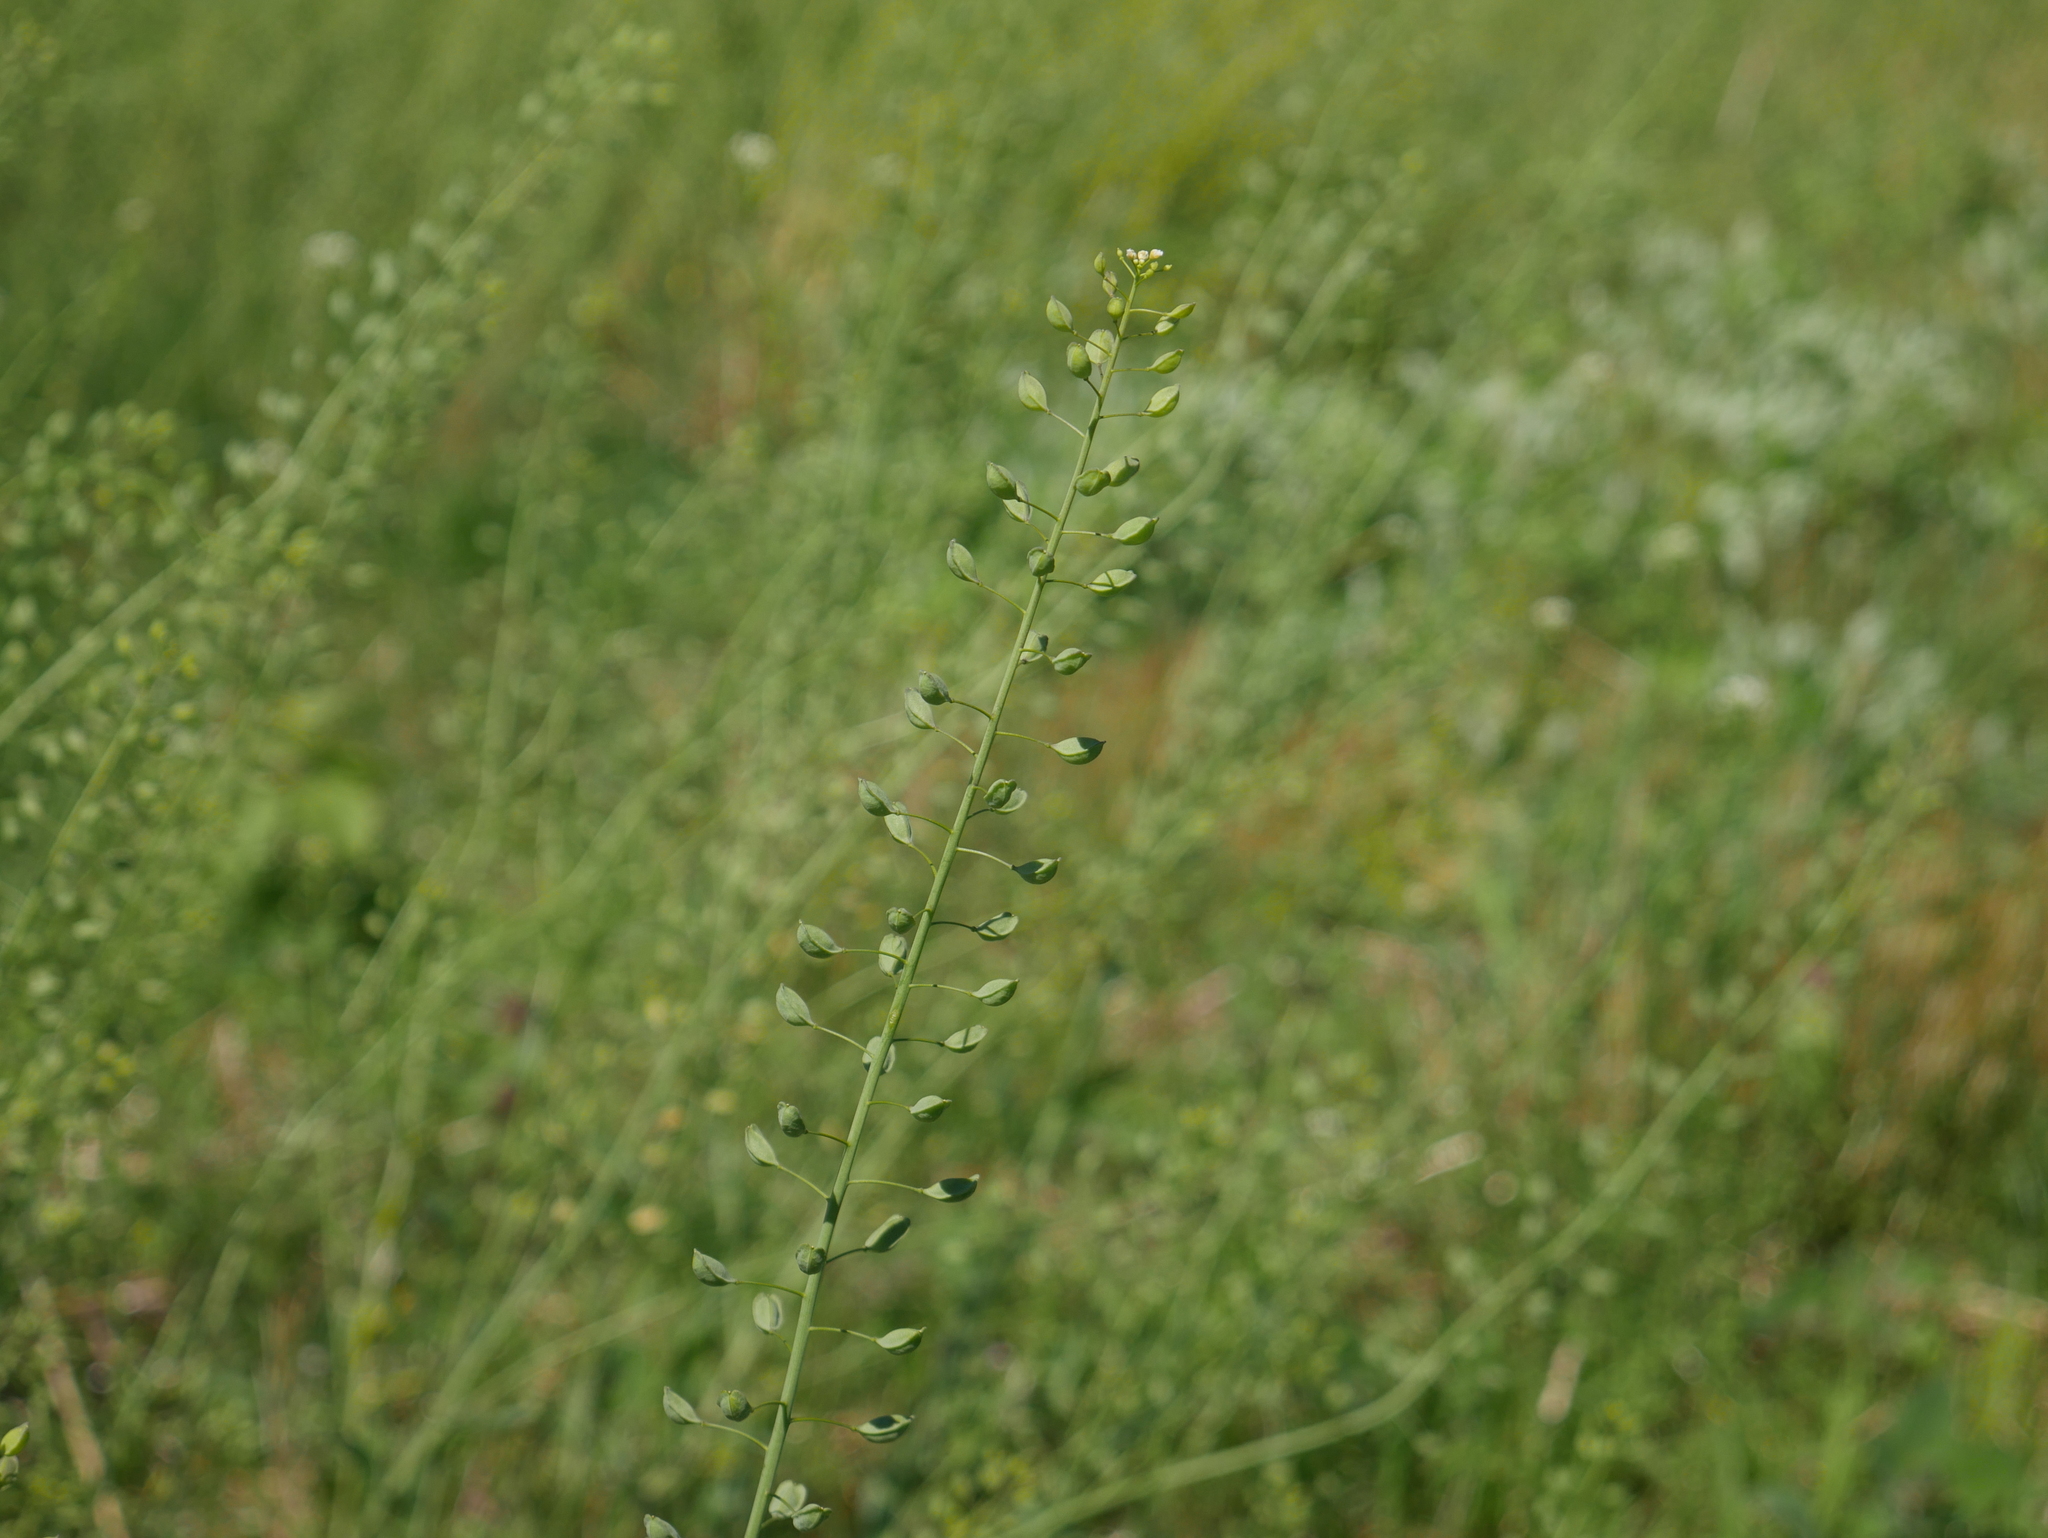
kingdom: Plantae
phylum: Tracheophyta
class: Magnoliopsida
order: Brassicales
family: Brassicaceae
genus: Mummenhoffia
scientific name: Mummenhoffia alliacea
